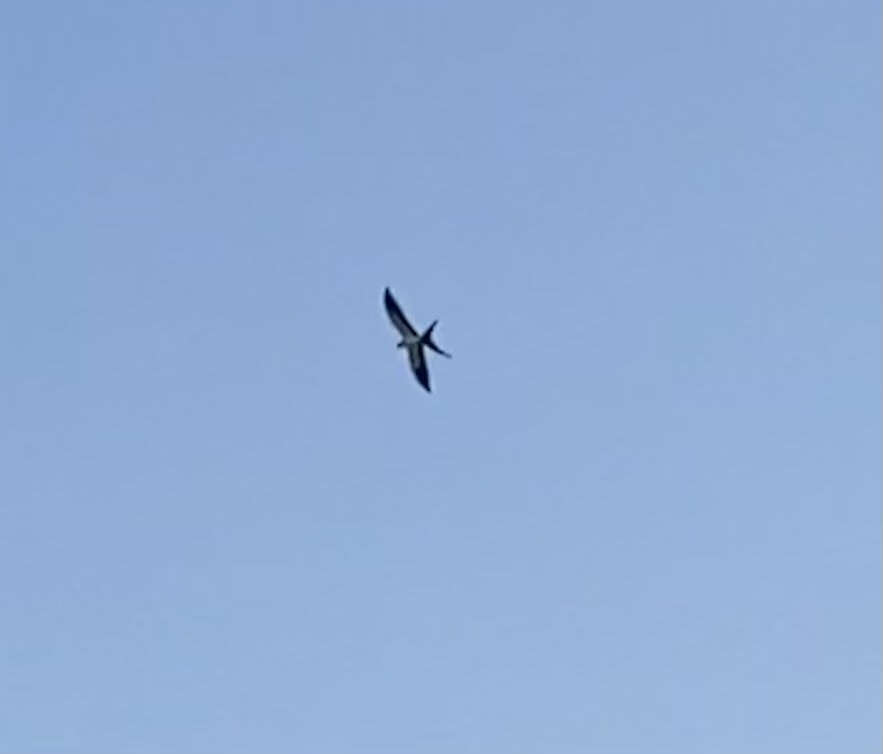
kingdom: Animalia
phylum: Chordata
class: Aves
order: Accipitriformes
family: Accipitridae
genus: Elanoides
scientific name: Elanoides forficatus
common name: Swallow-tailed kite
